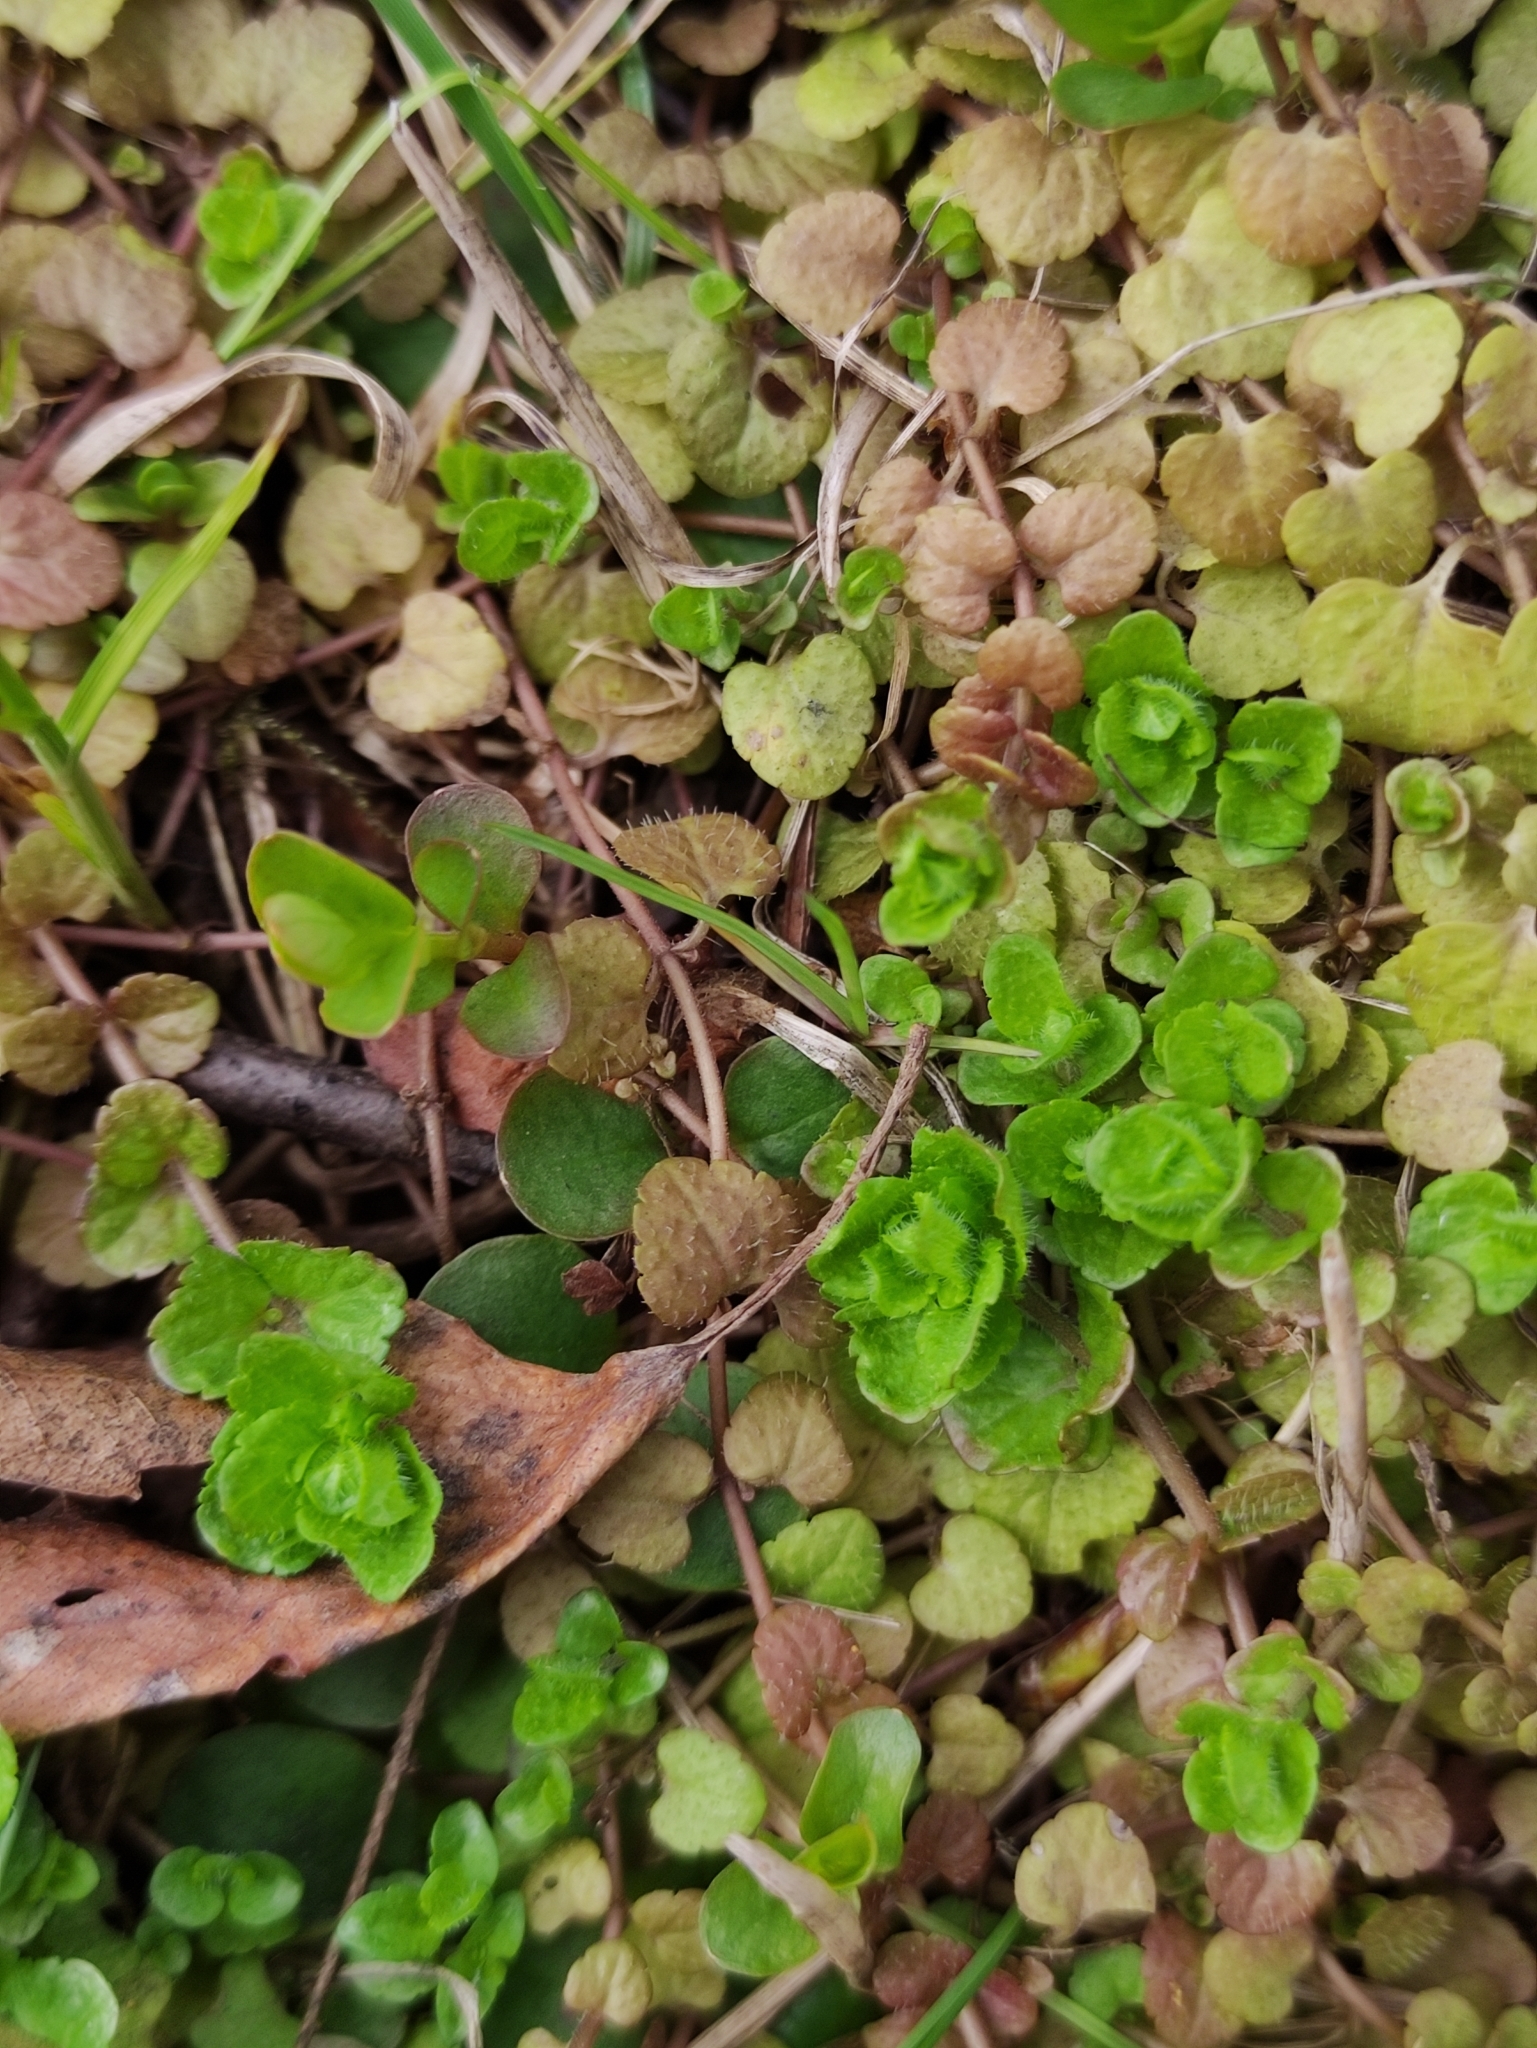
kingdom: Plantae
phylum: Tracheophyta
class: Magnoliopsida
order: Lamiales
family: Plantaginaceae
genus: Veronica
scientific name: Veronica filiformis
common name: Slender speedwell
